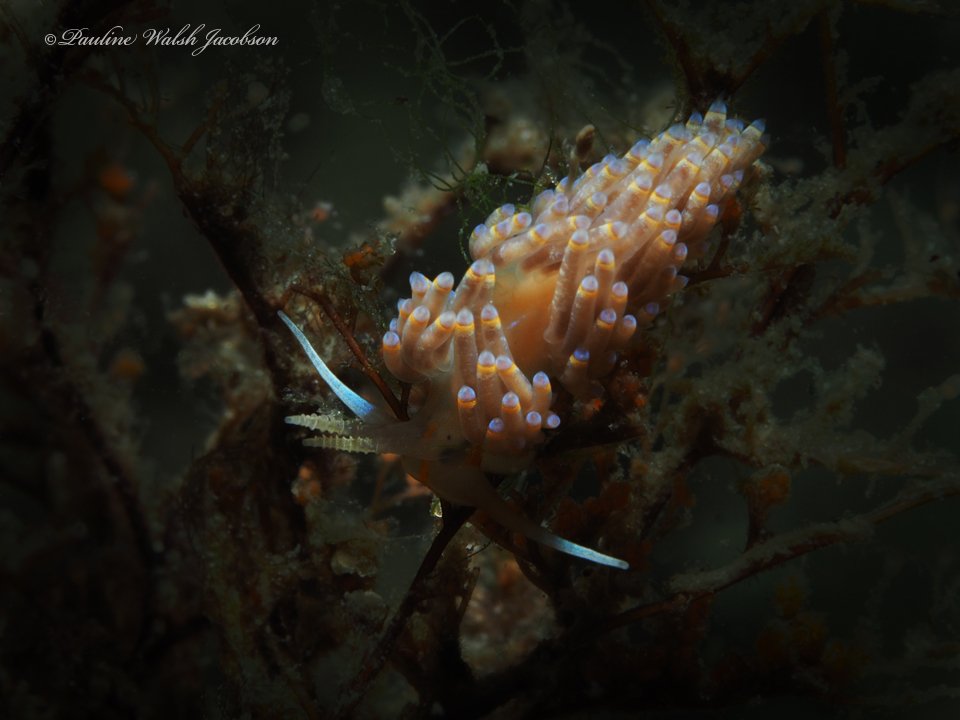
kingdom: Animalia
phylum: Mollusca
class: Gastropoda
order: Nudibranchia
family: Myrrhinidae
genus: Dondice
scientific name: Dondice jupiteriensis
